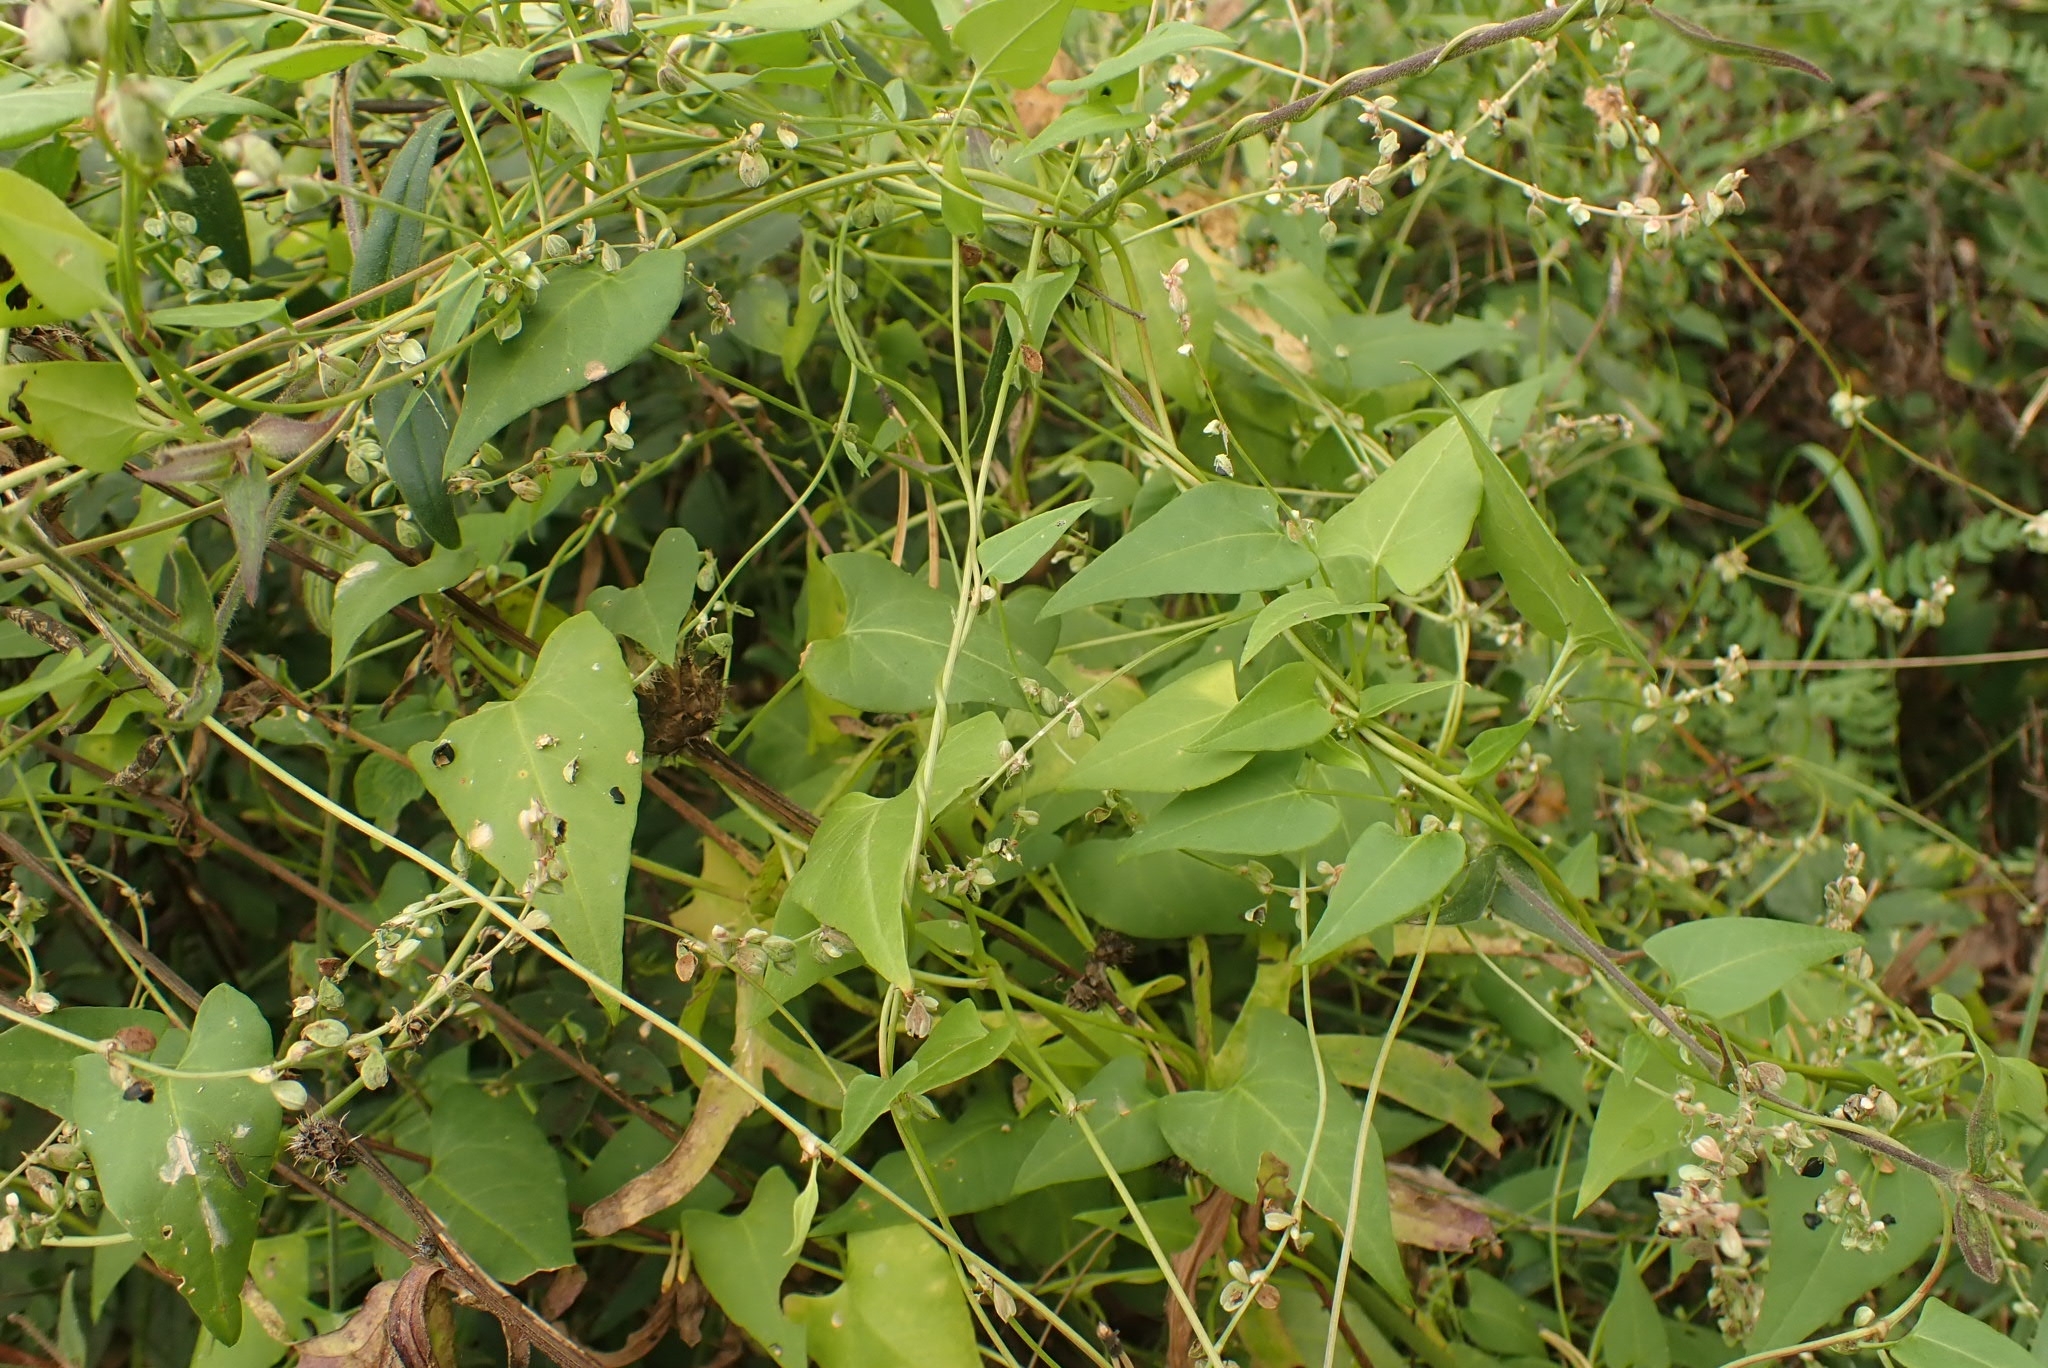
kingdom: Plantae
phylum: Tracheophyta
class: Magnoliopsida
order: Caryophyllales
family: Polygonaceae
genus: Fallopia
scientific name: Fallopia convolvulus
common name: Black bindweed
